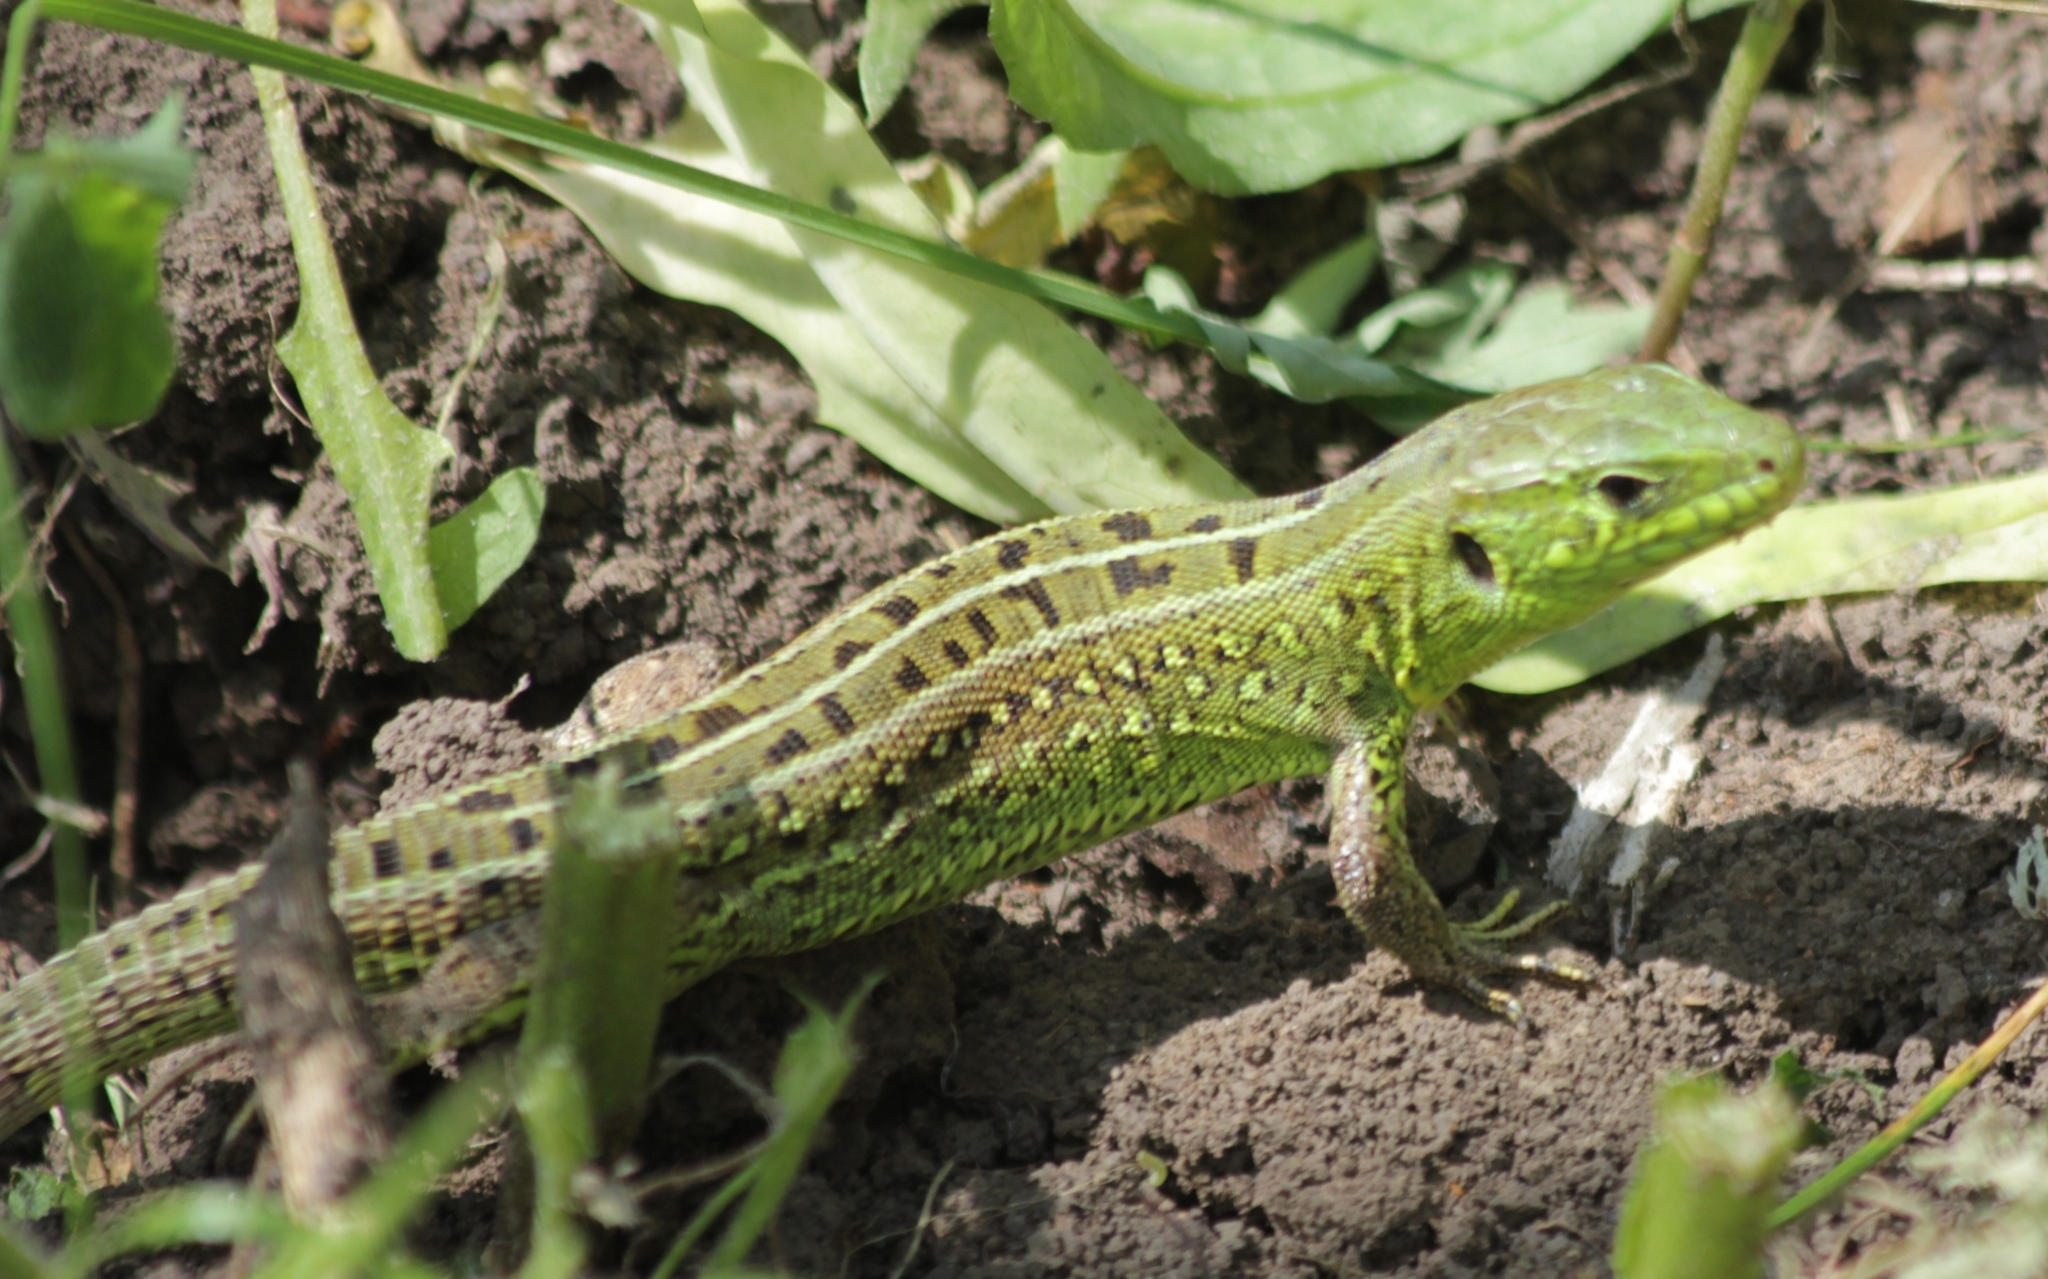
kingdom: Animalia
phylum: Chordata
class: Squamata
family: Lacertidae
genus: Lacerta
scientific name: Lacerta agilis
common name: Sand lizard
